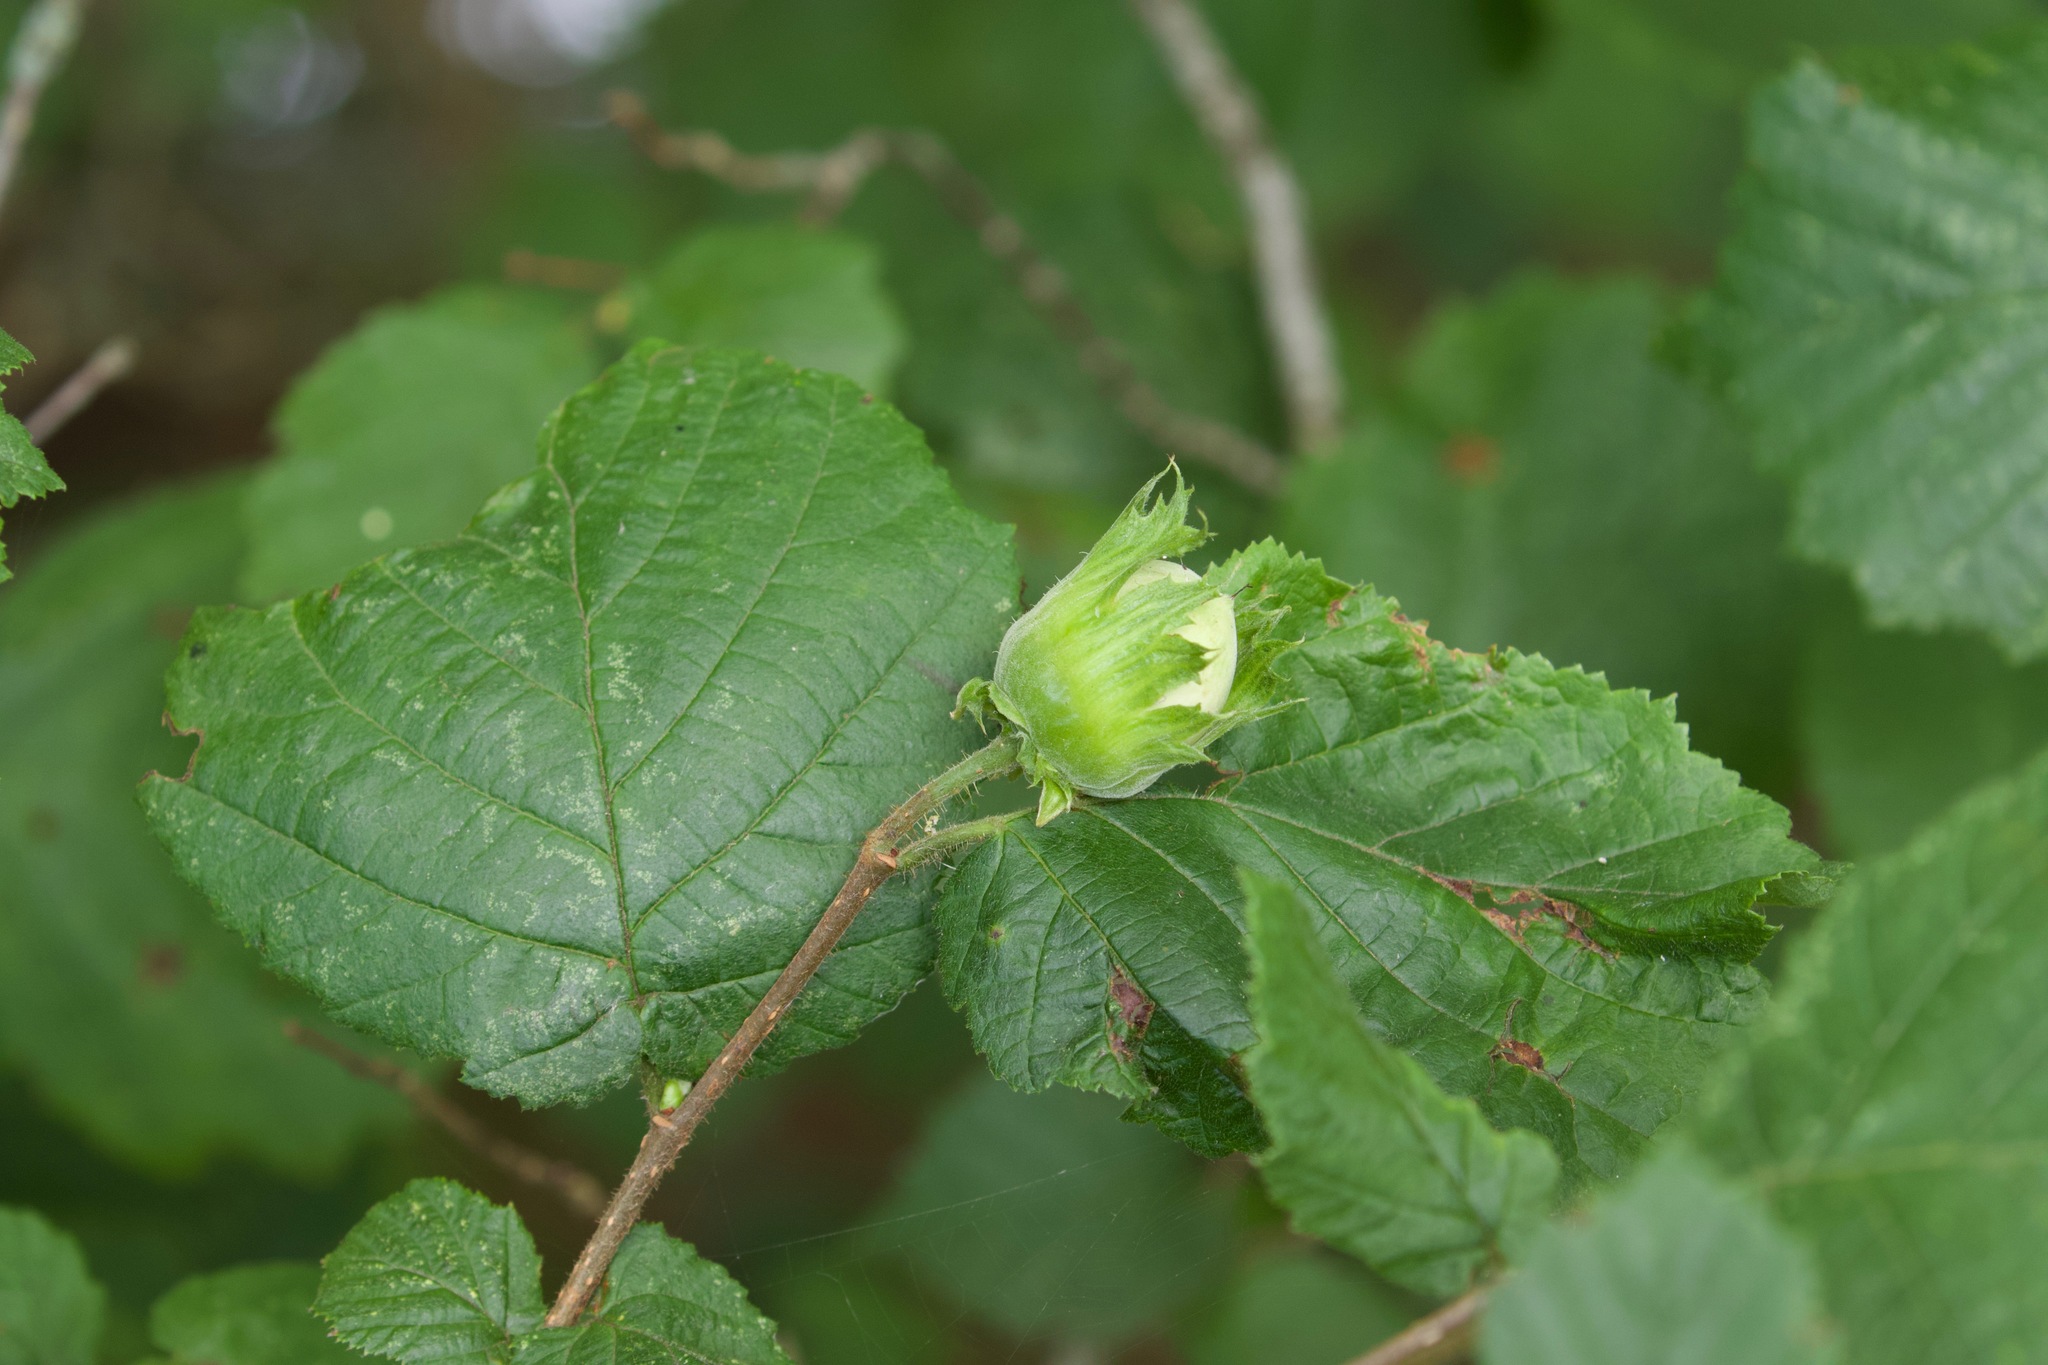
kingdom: Plantae
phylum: Tracheophyta
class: Magnoliopsida
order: Fagales
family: Betulaceae
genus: Corylus
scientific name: Corylus avellana
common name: European hazel
